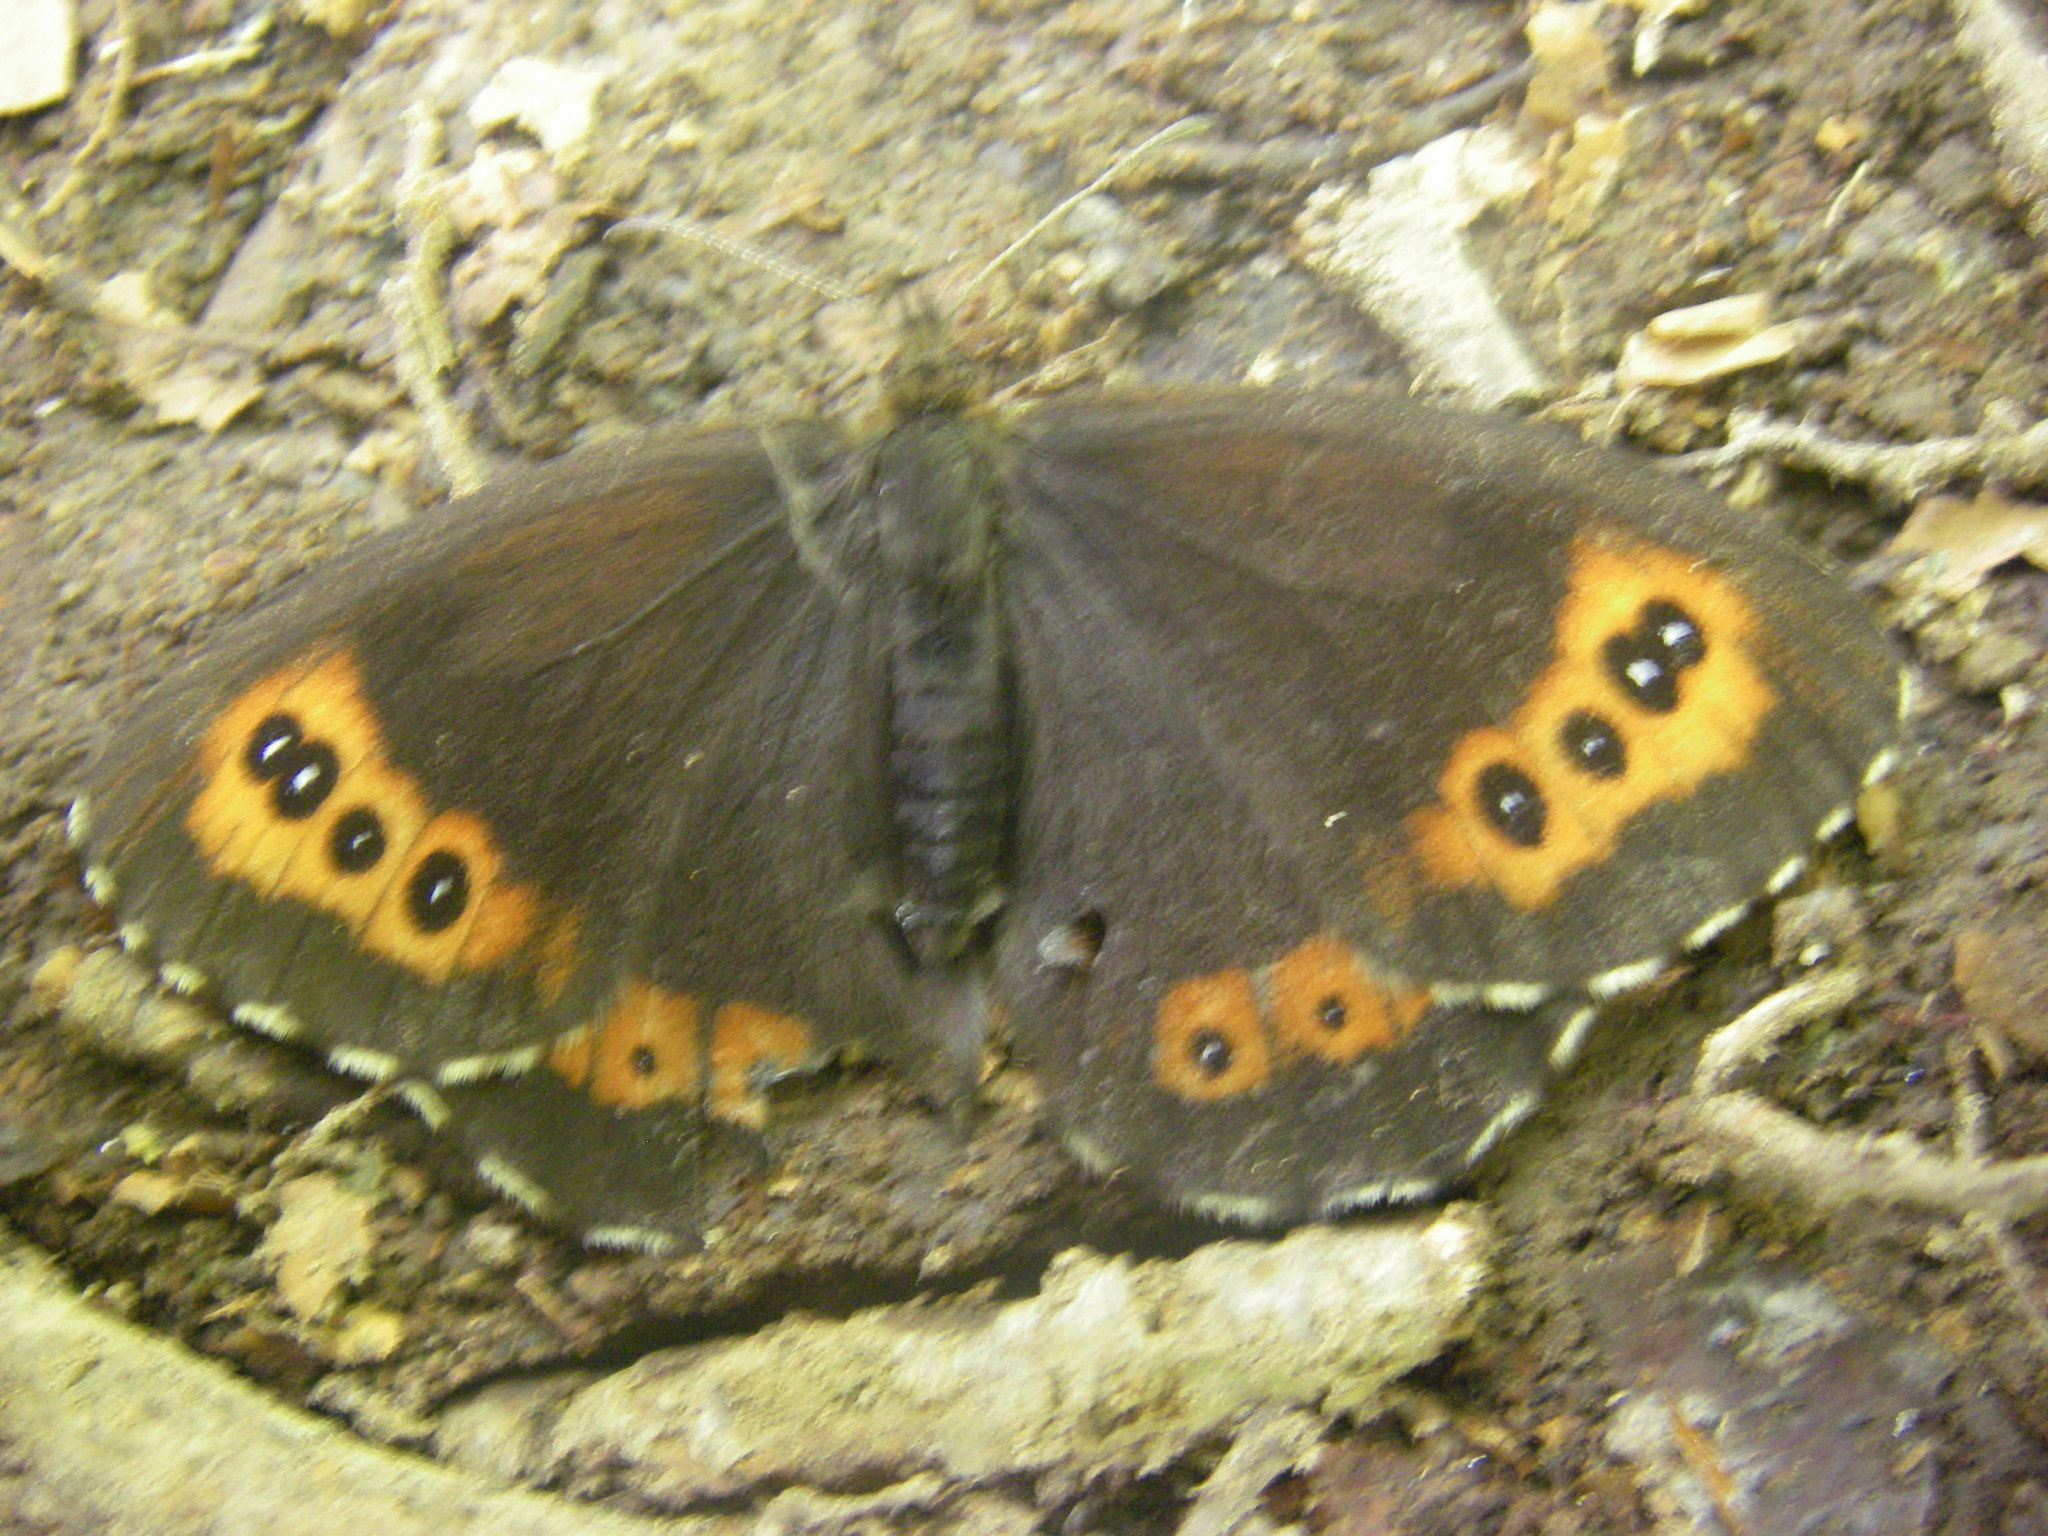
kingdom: Animalia
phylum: Arthropoda
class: Insecta
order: Lepidoptera
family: Nymphalidae
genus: Erebia
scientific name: Erebia ligea
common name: Arran brown
